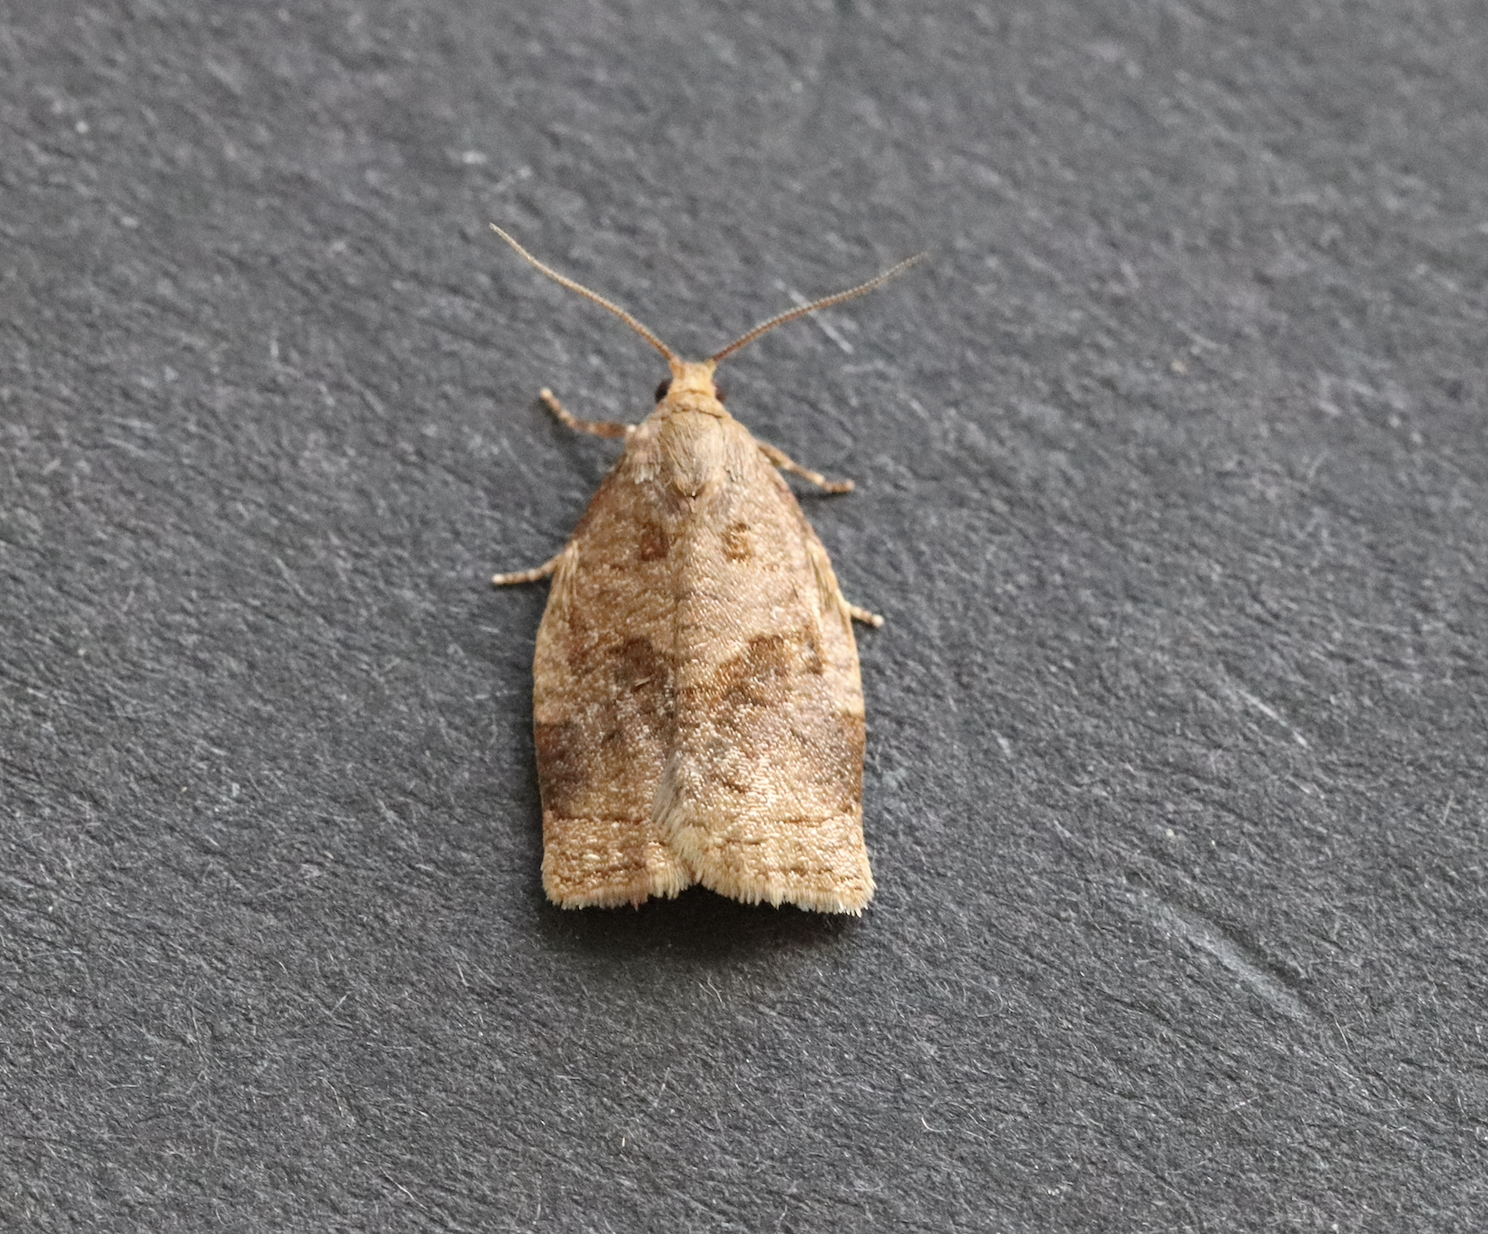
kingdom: Animalia
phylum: Arthropoda
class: Insecta
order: Lepidoptera
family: Tortricidae
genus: Archips
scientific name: Archips rosana
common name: Rose tortrix
